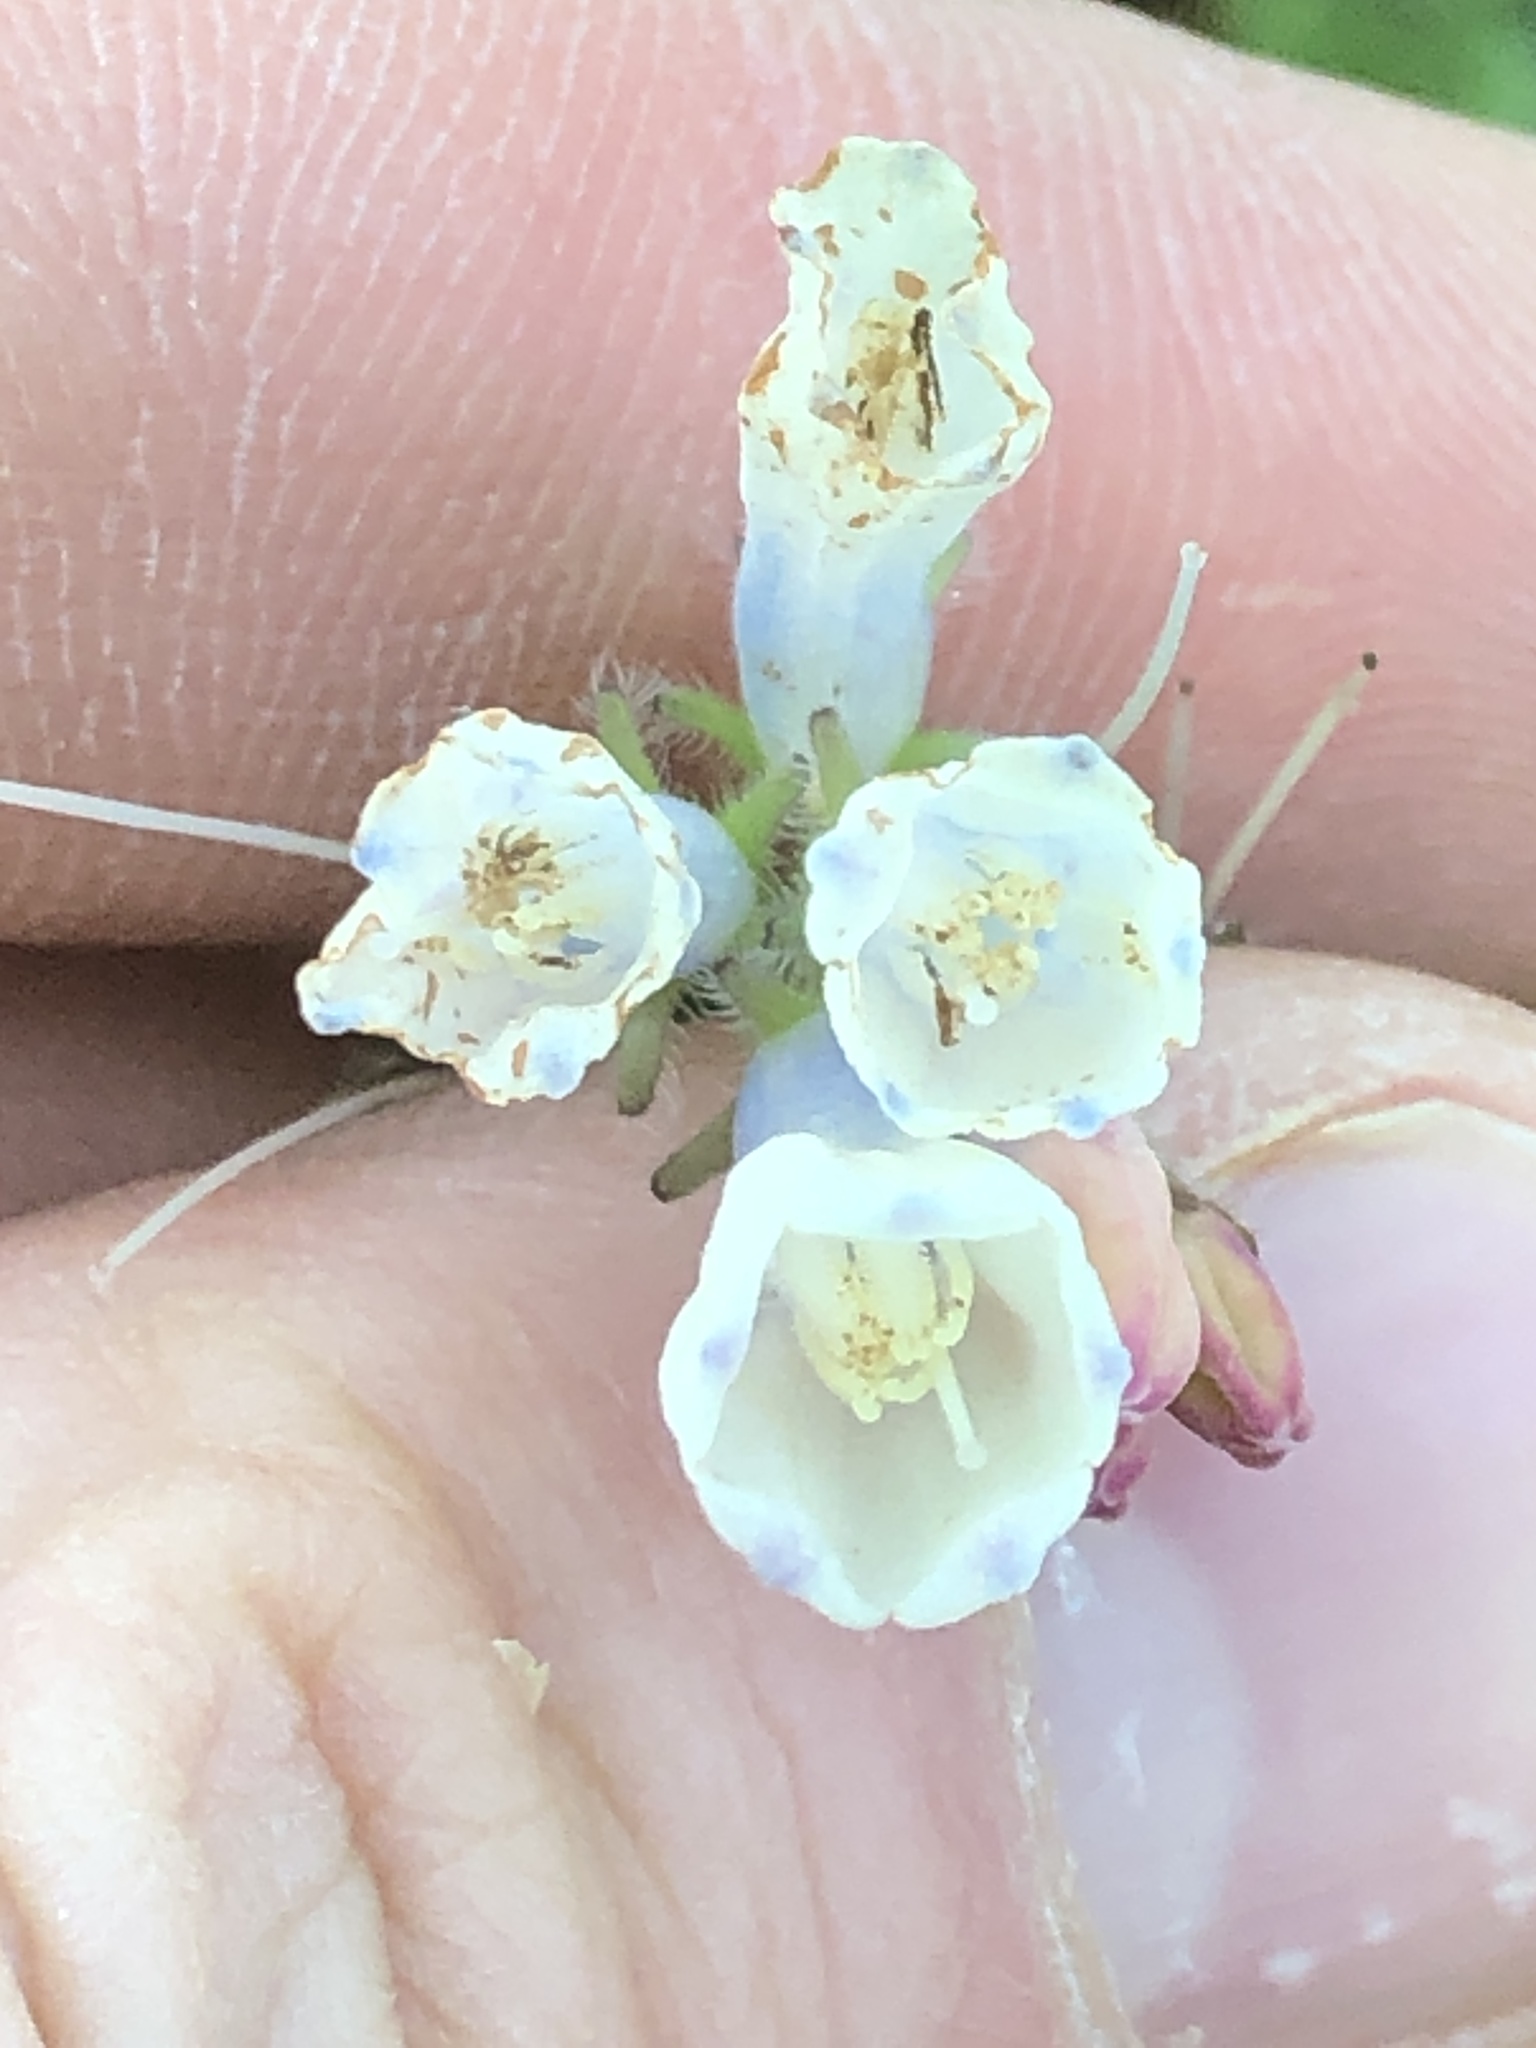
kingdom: Plantae
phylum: Tracheophyta
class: Magnoliopsida
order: Boraginales
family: Boraginaceae
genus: Symphytum
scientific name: Symphytum officinale
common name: Common comfrey
